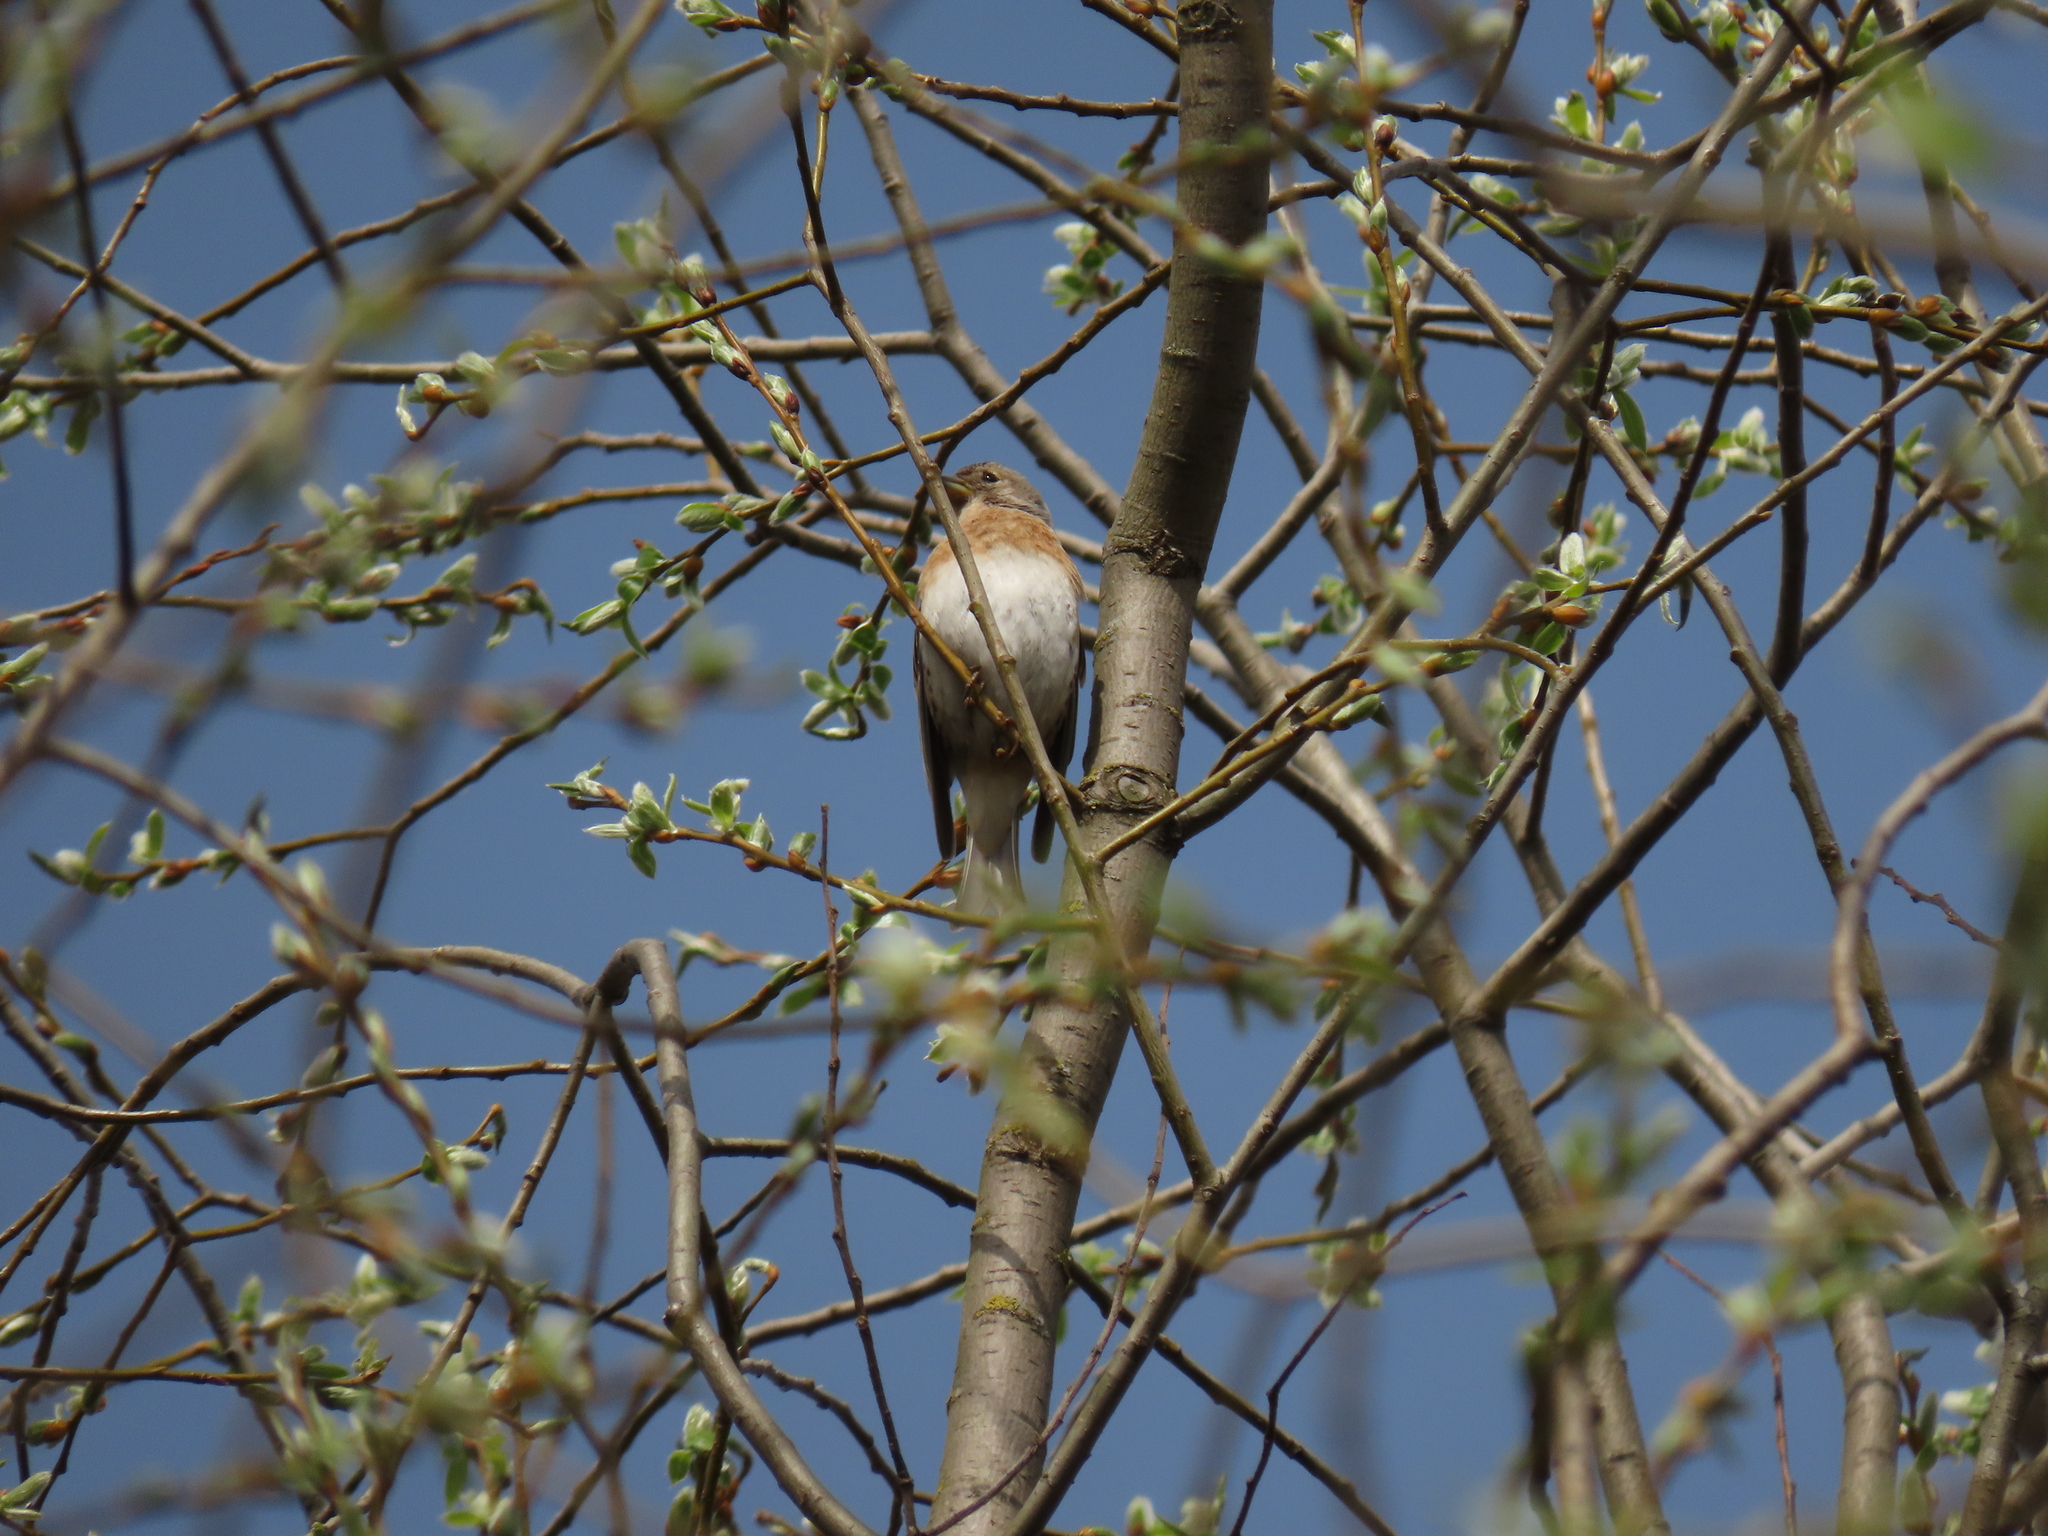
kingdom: Animalia
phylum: Chordata
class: Aves
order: Passeriformes
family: Fringillidae
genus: Fringilla
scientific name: Fringilla montifringilla
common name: Brambling
